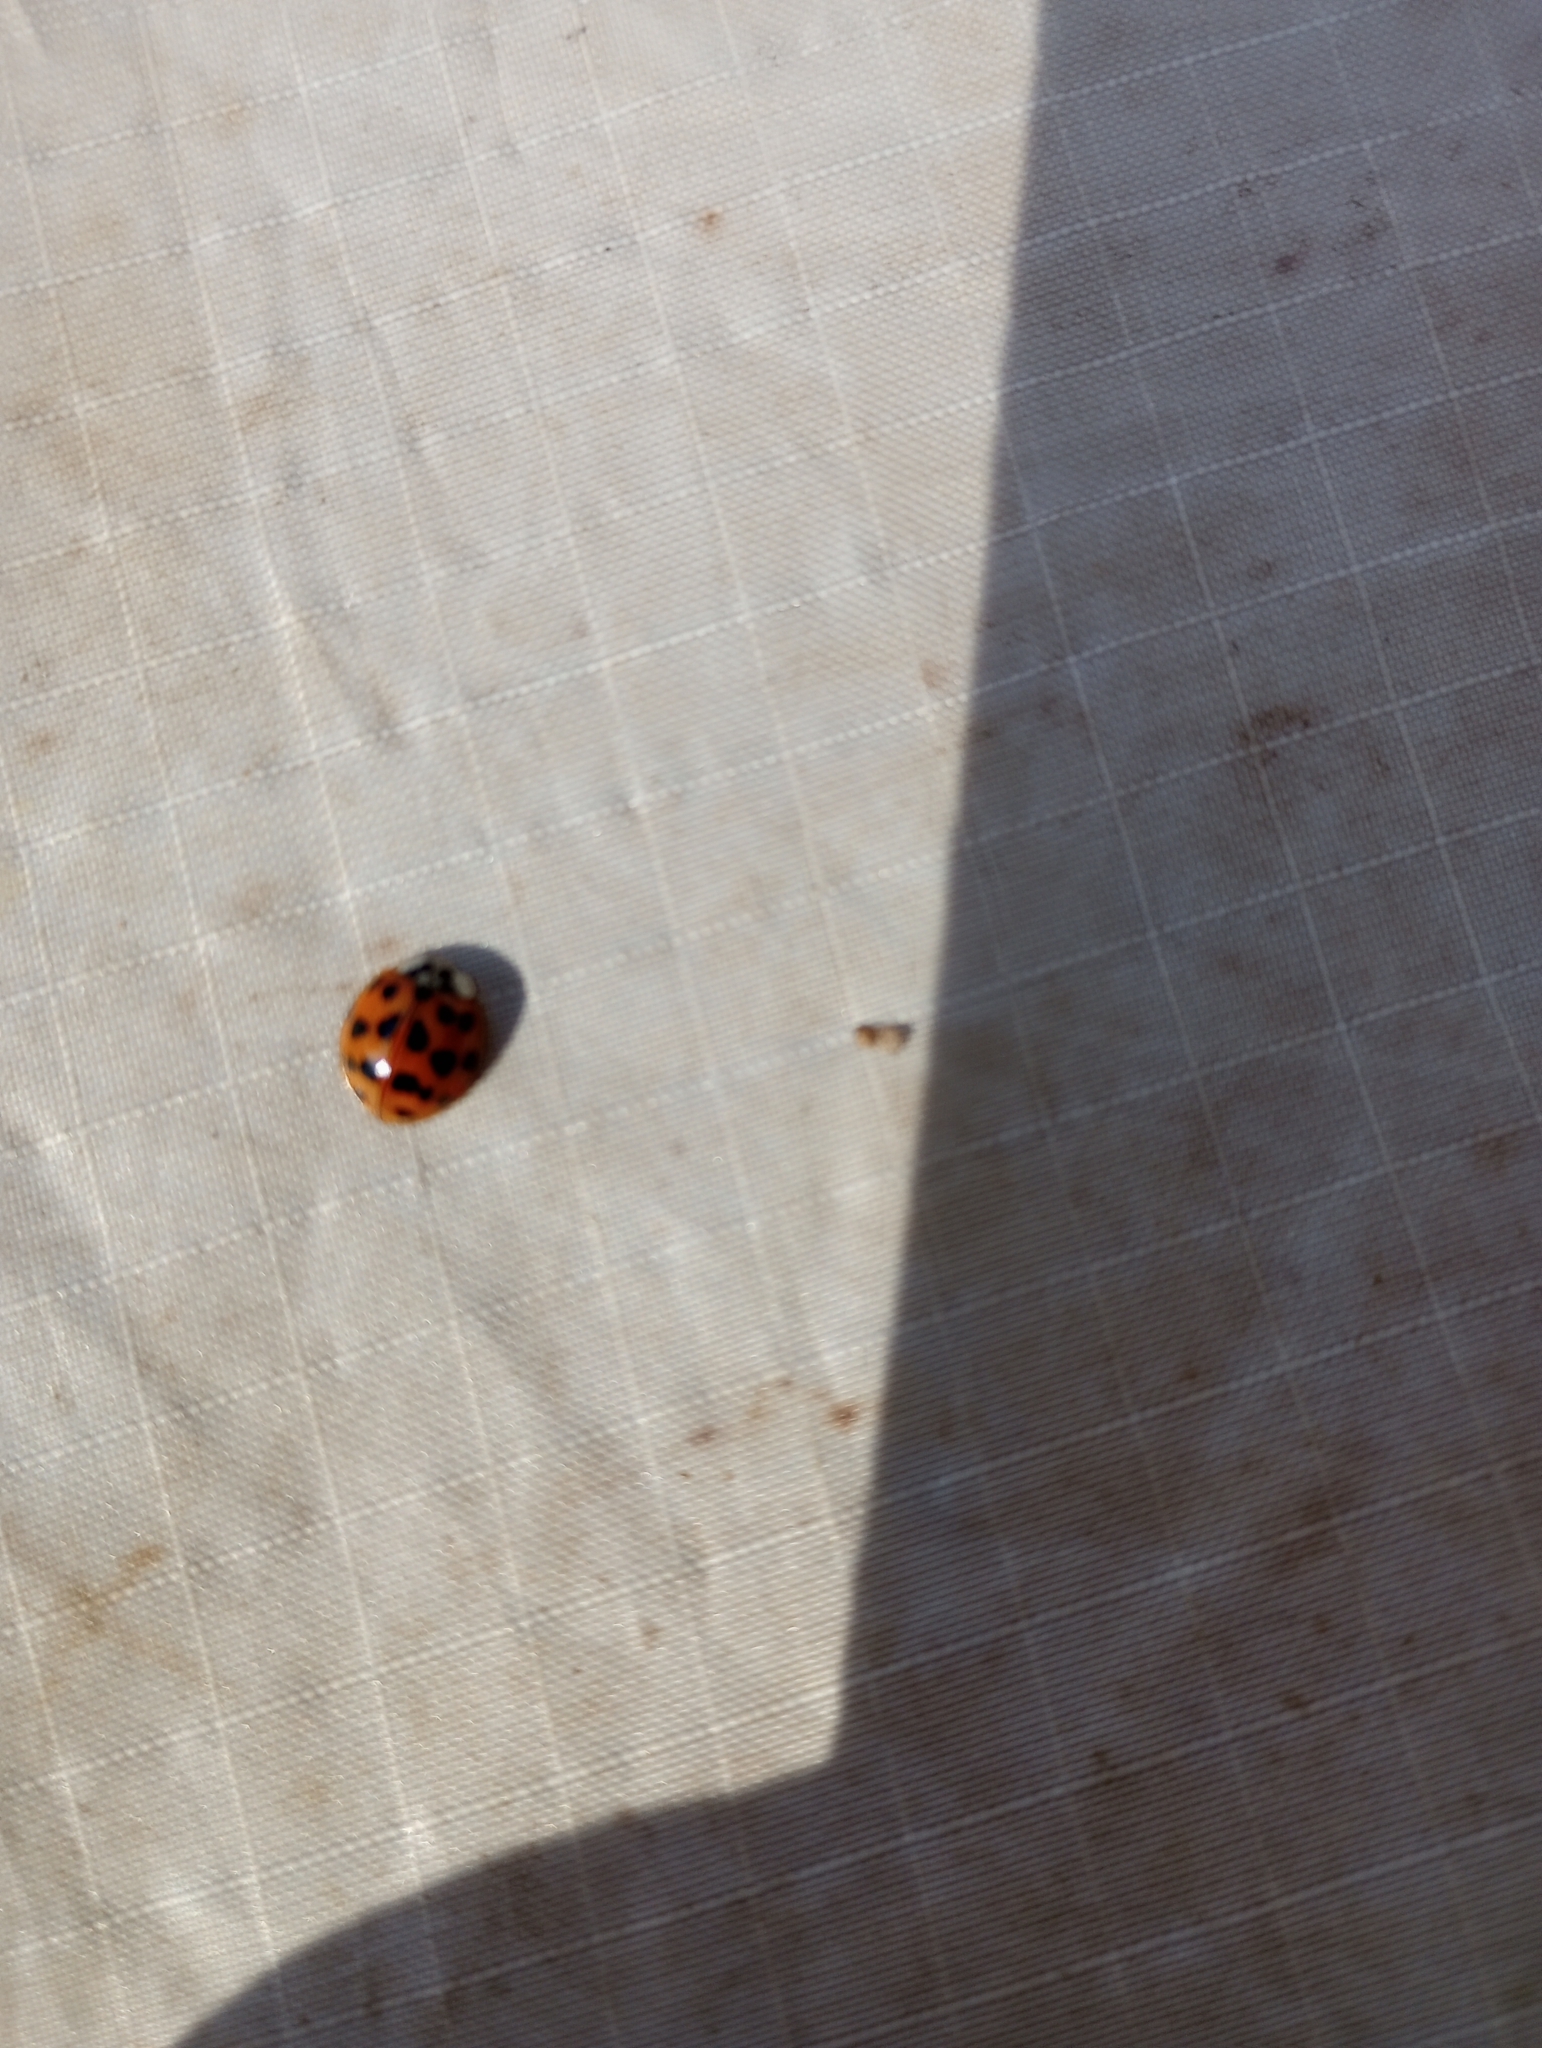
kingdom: Animalia
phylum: Arthropoda
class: Insecta
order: Coleoptera
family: Coccinellidae
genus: Harmonia
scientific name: Harmonia axyridis
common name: Harlequin ladybird
